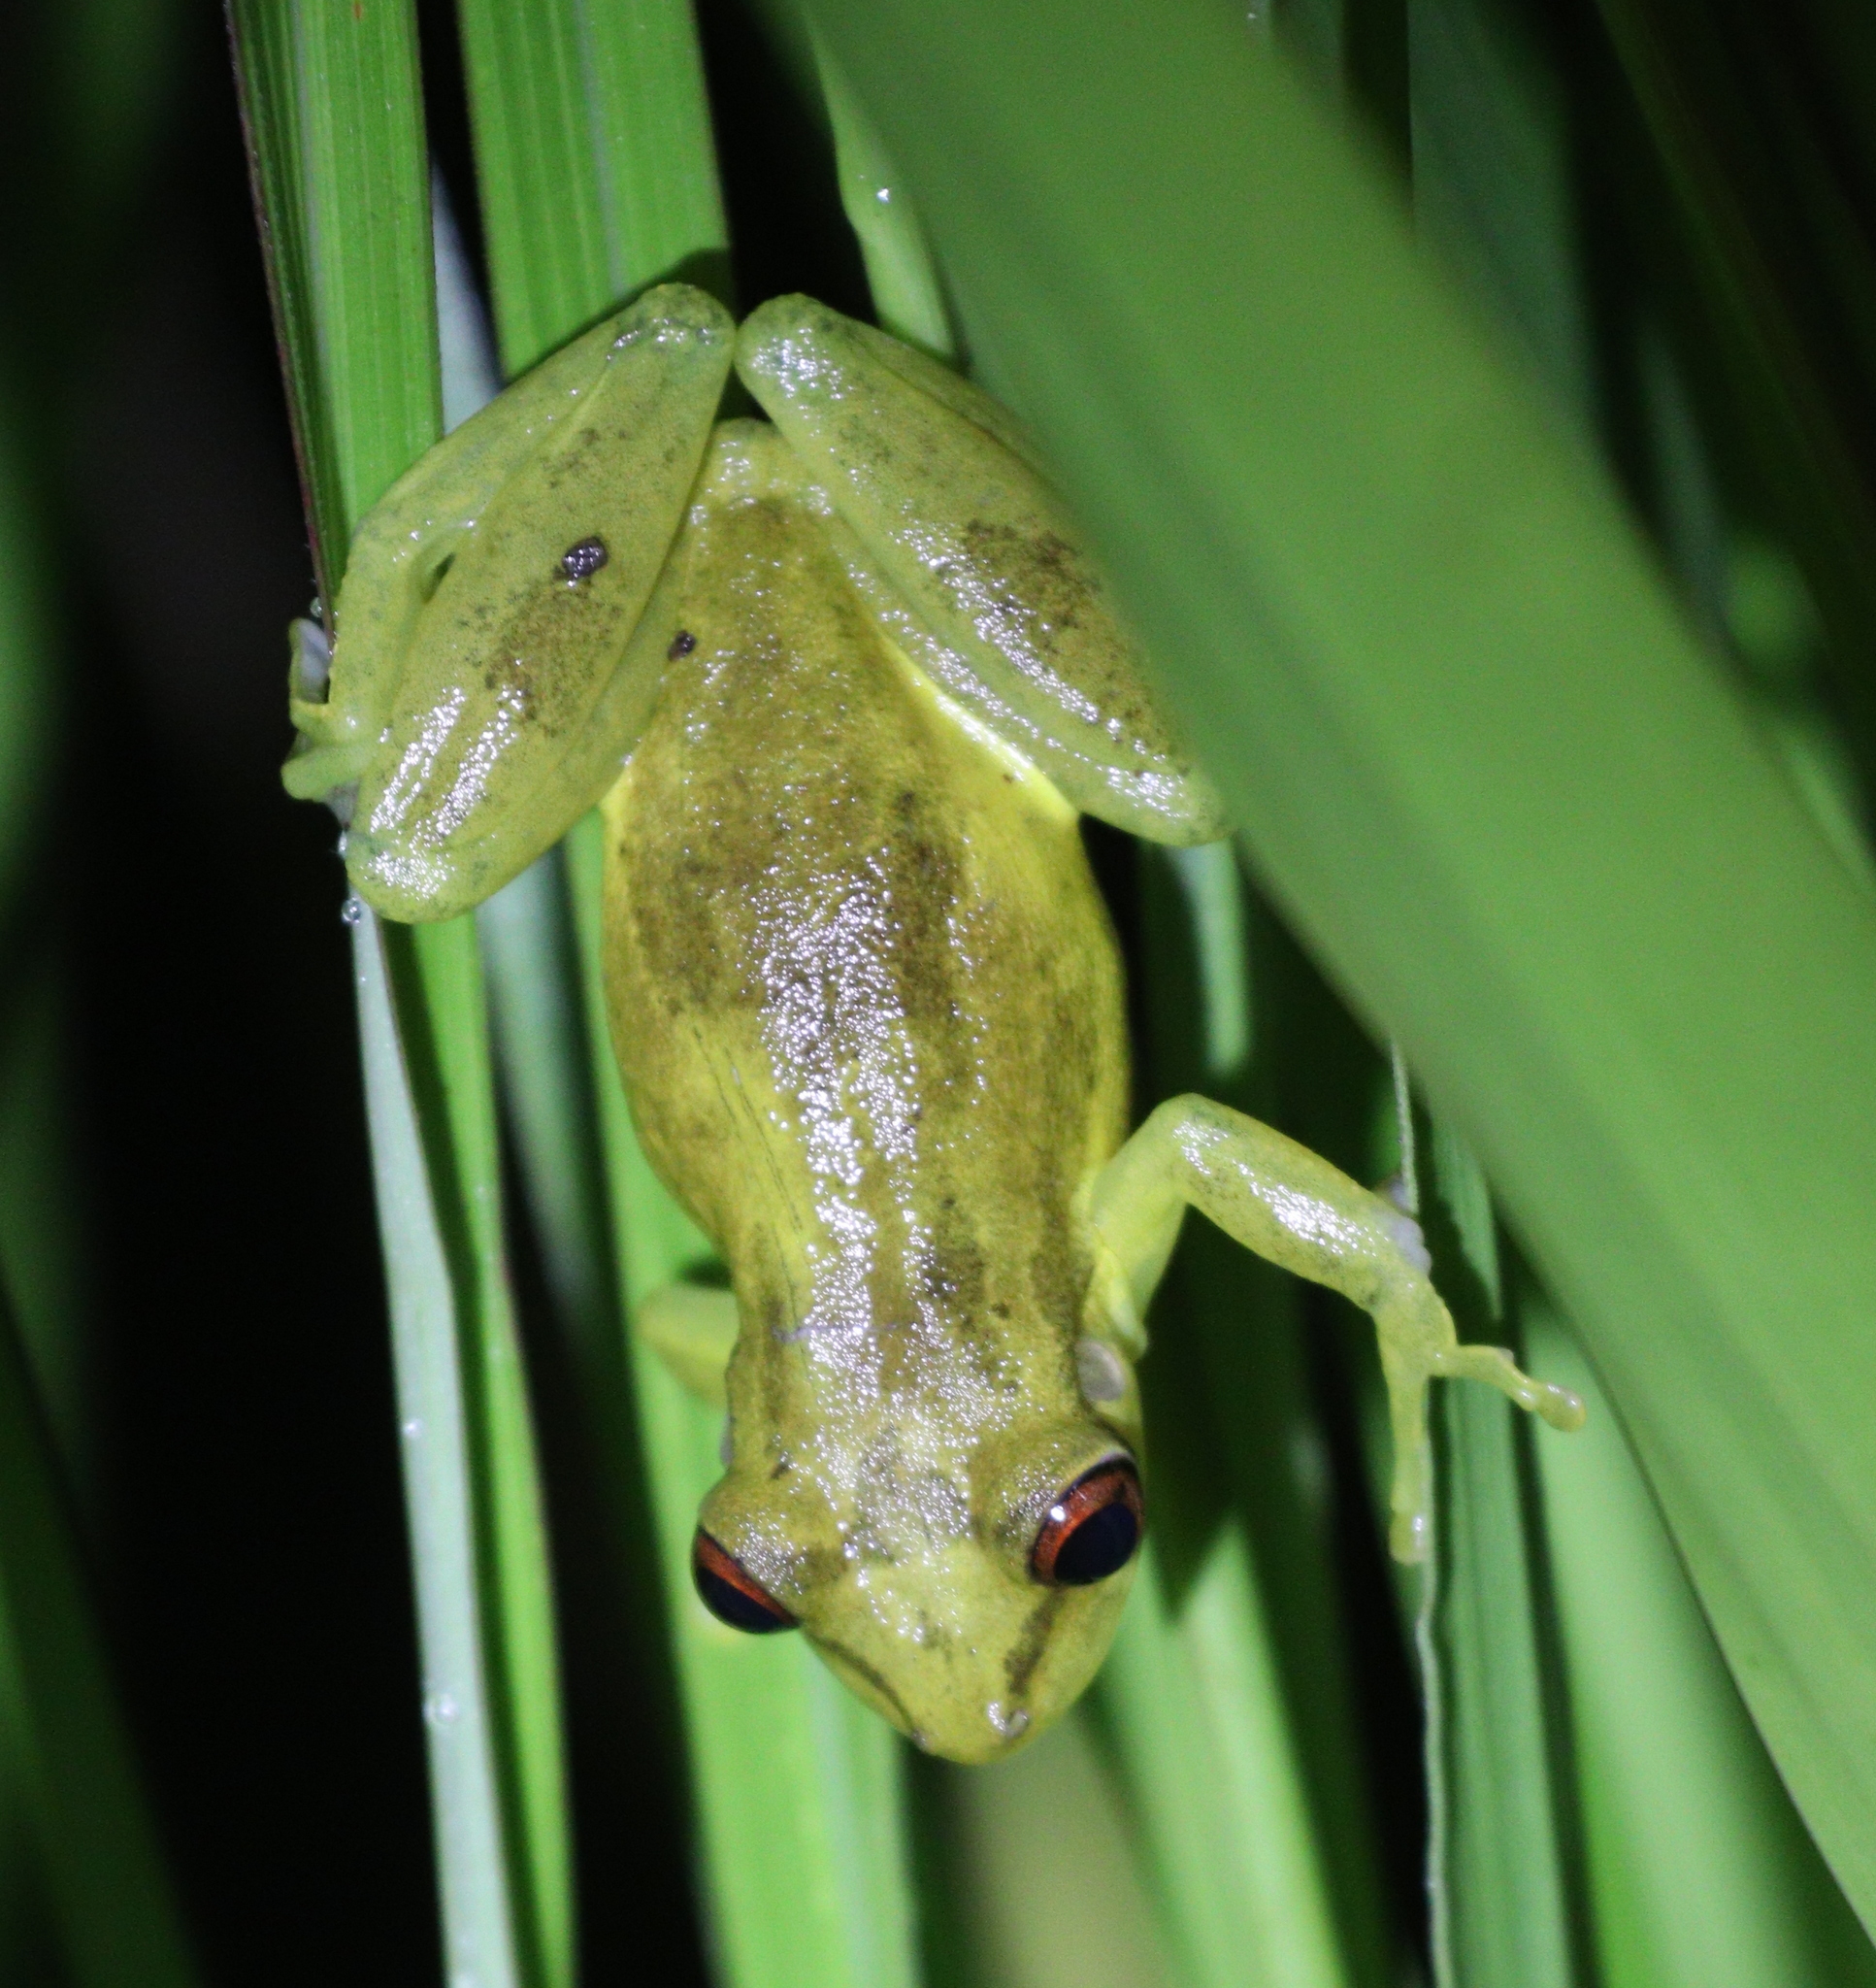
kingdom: Animalia
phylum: Chordata
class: Amphibia
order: Anura
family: Hylidae
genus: Scinax
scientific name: Scinax elaeochroa
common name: Sipurio snouted treefrog
